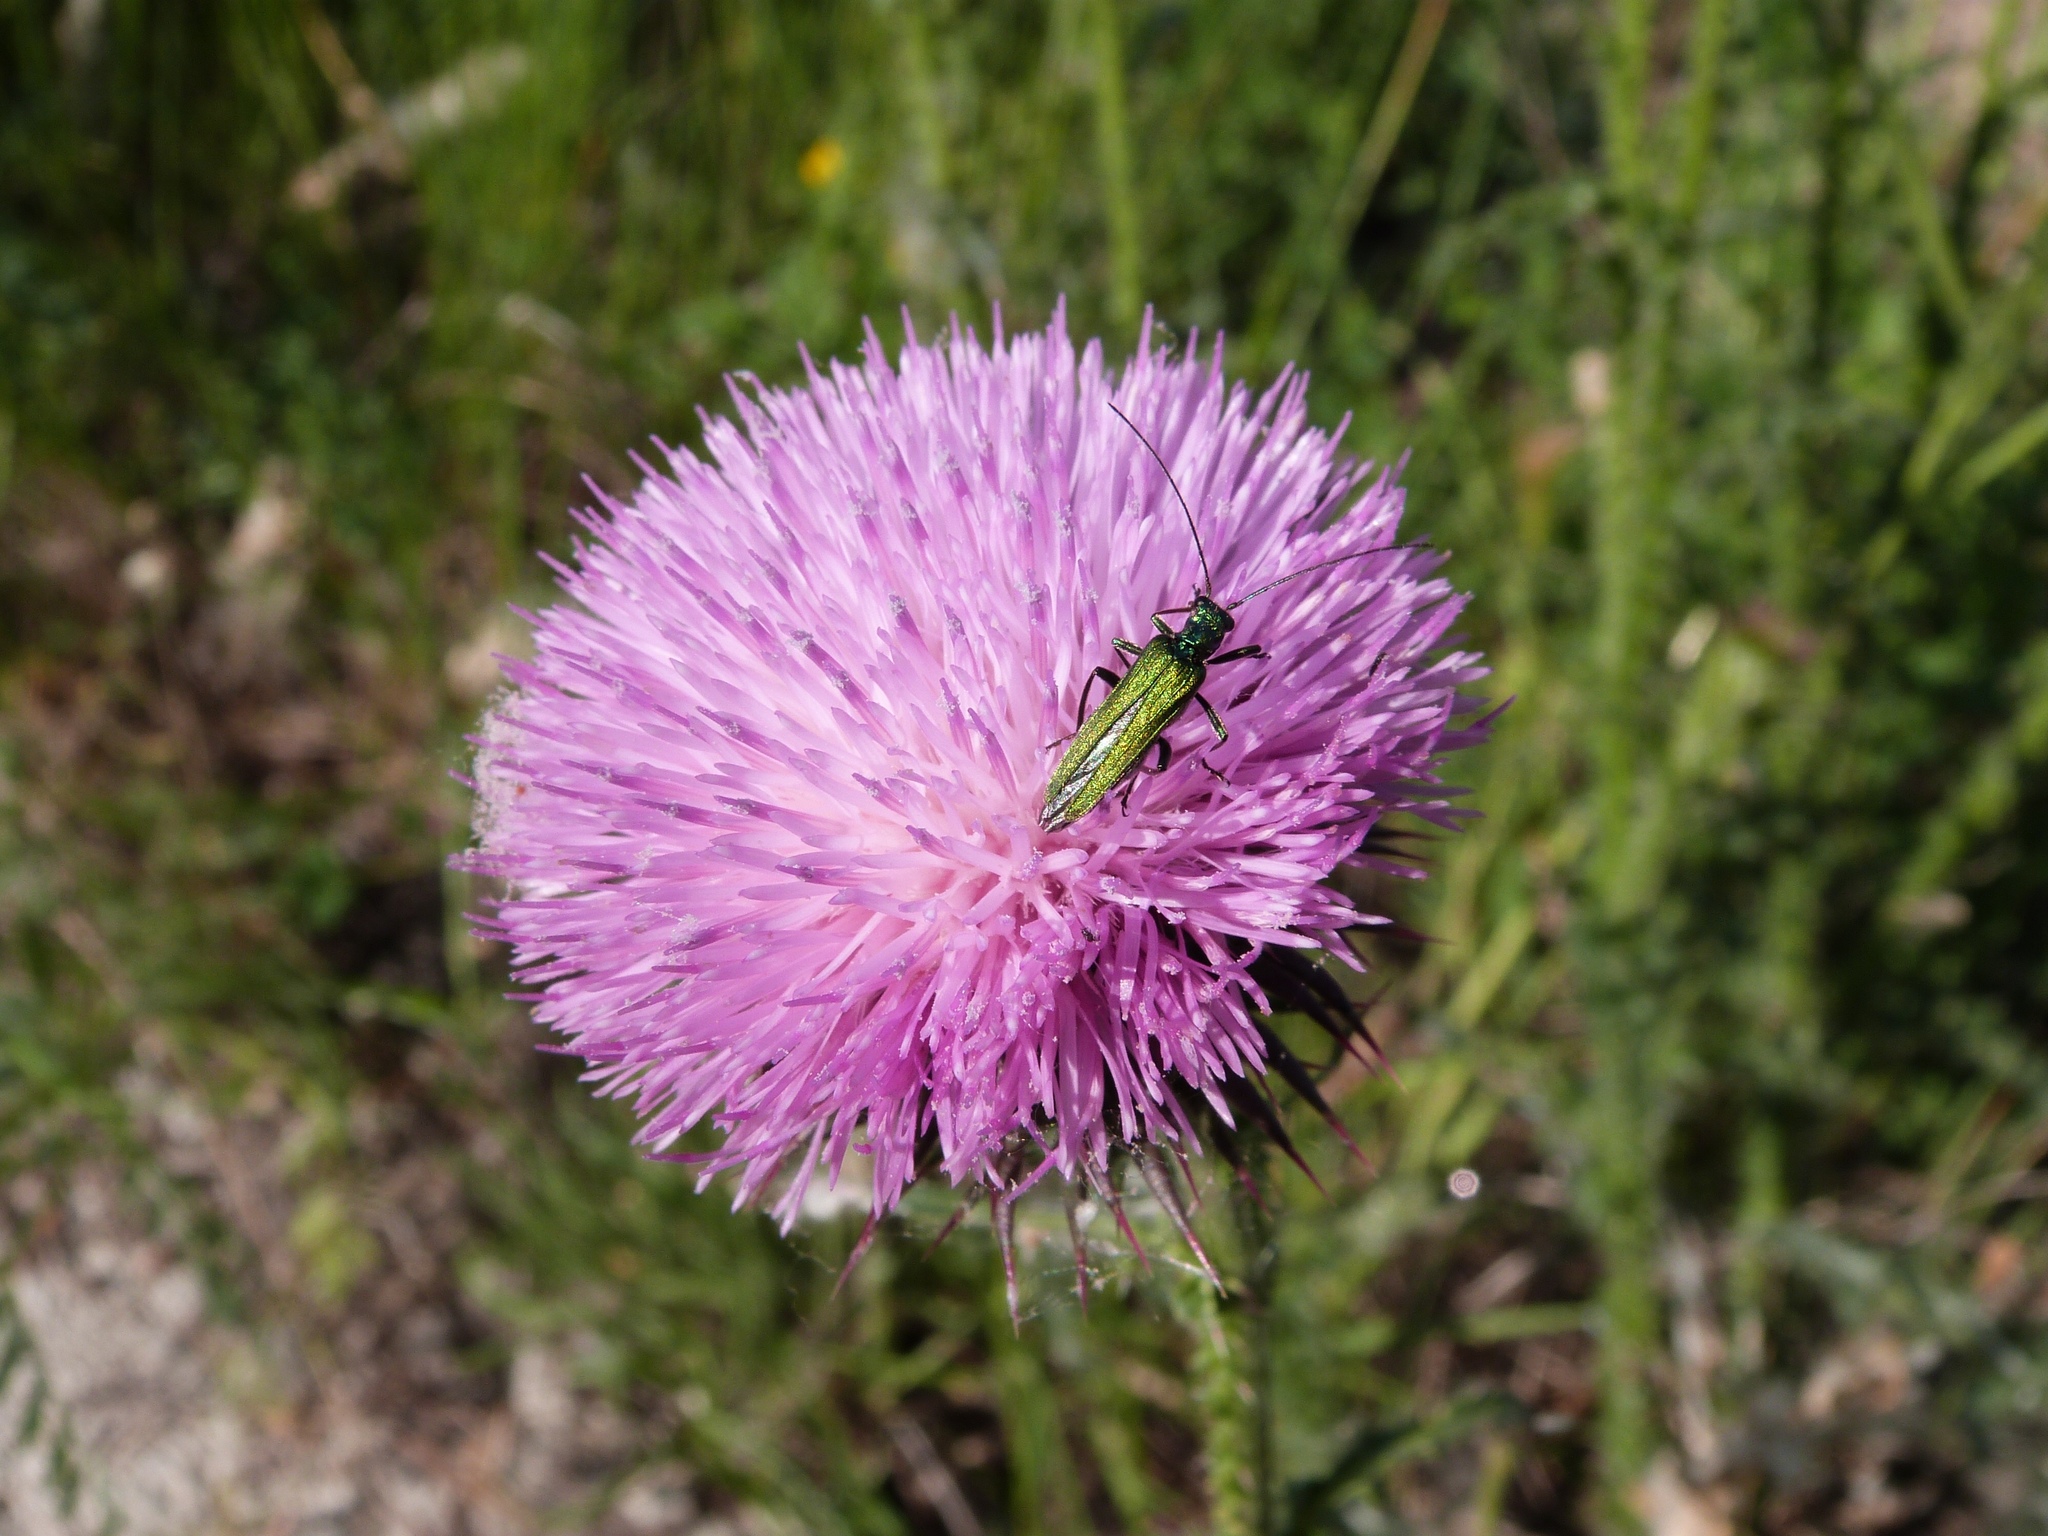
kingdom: Animalia
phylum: Arthropoda
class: Insecta
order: Coleoptera
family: Oedemeridae
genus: Oedemera
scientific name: Oedemera nobilis
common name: Swollen-thighed beetle
